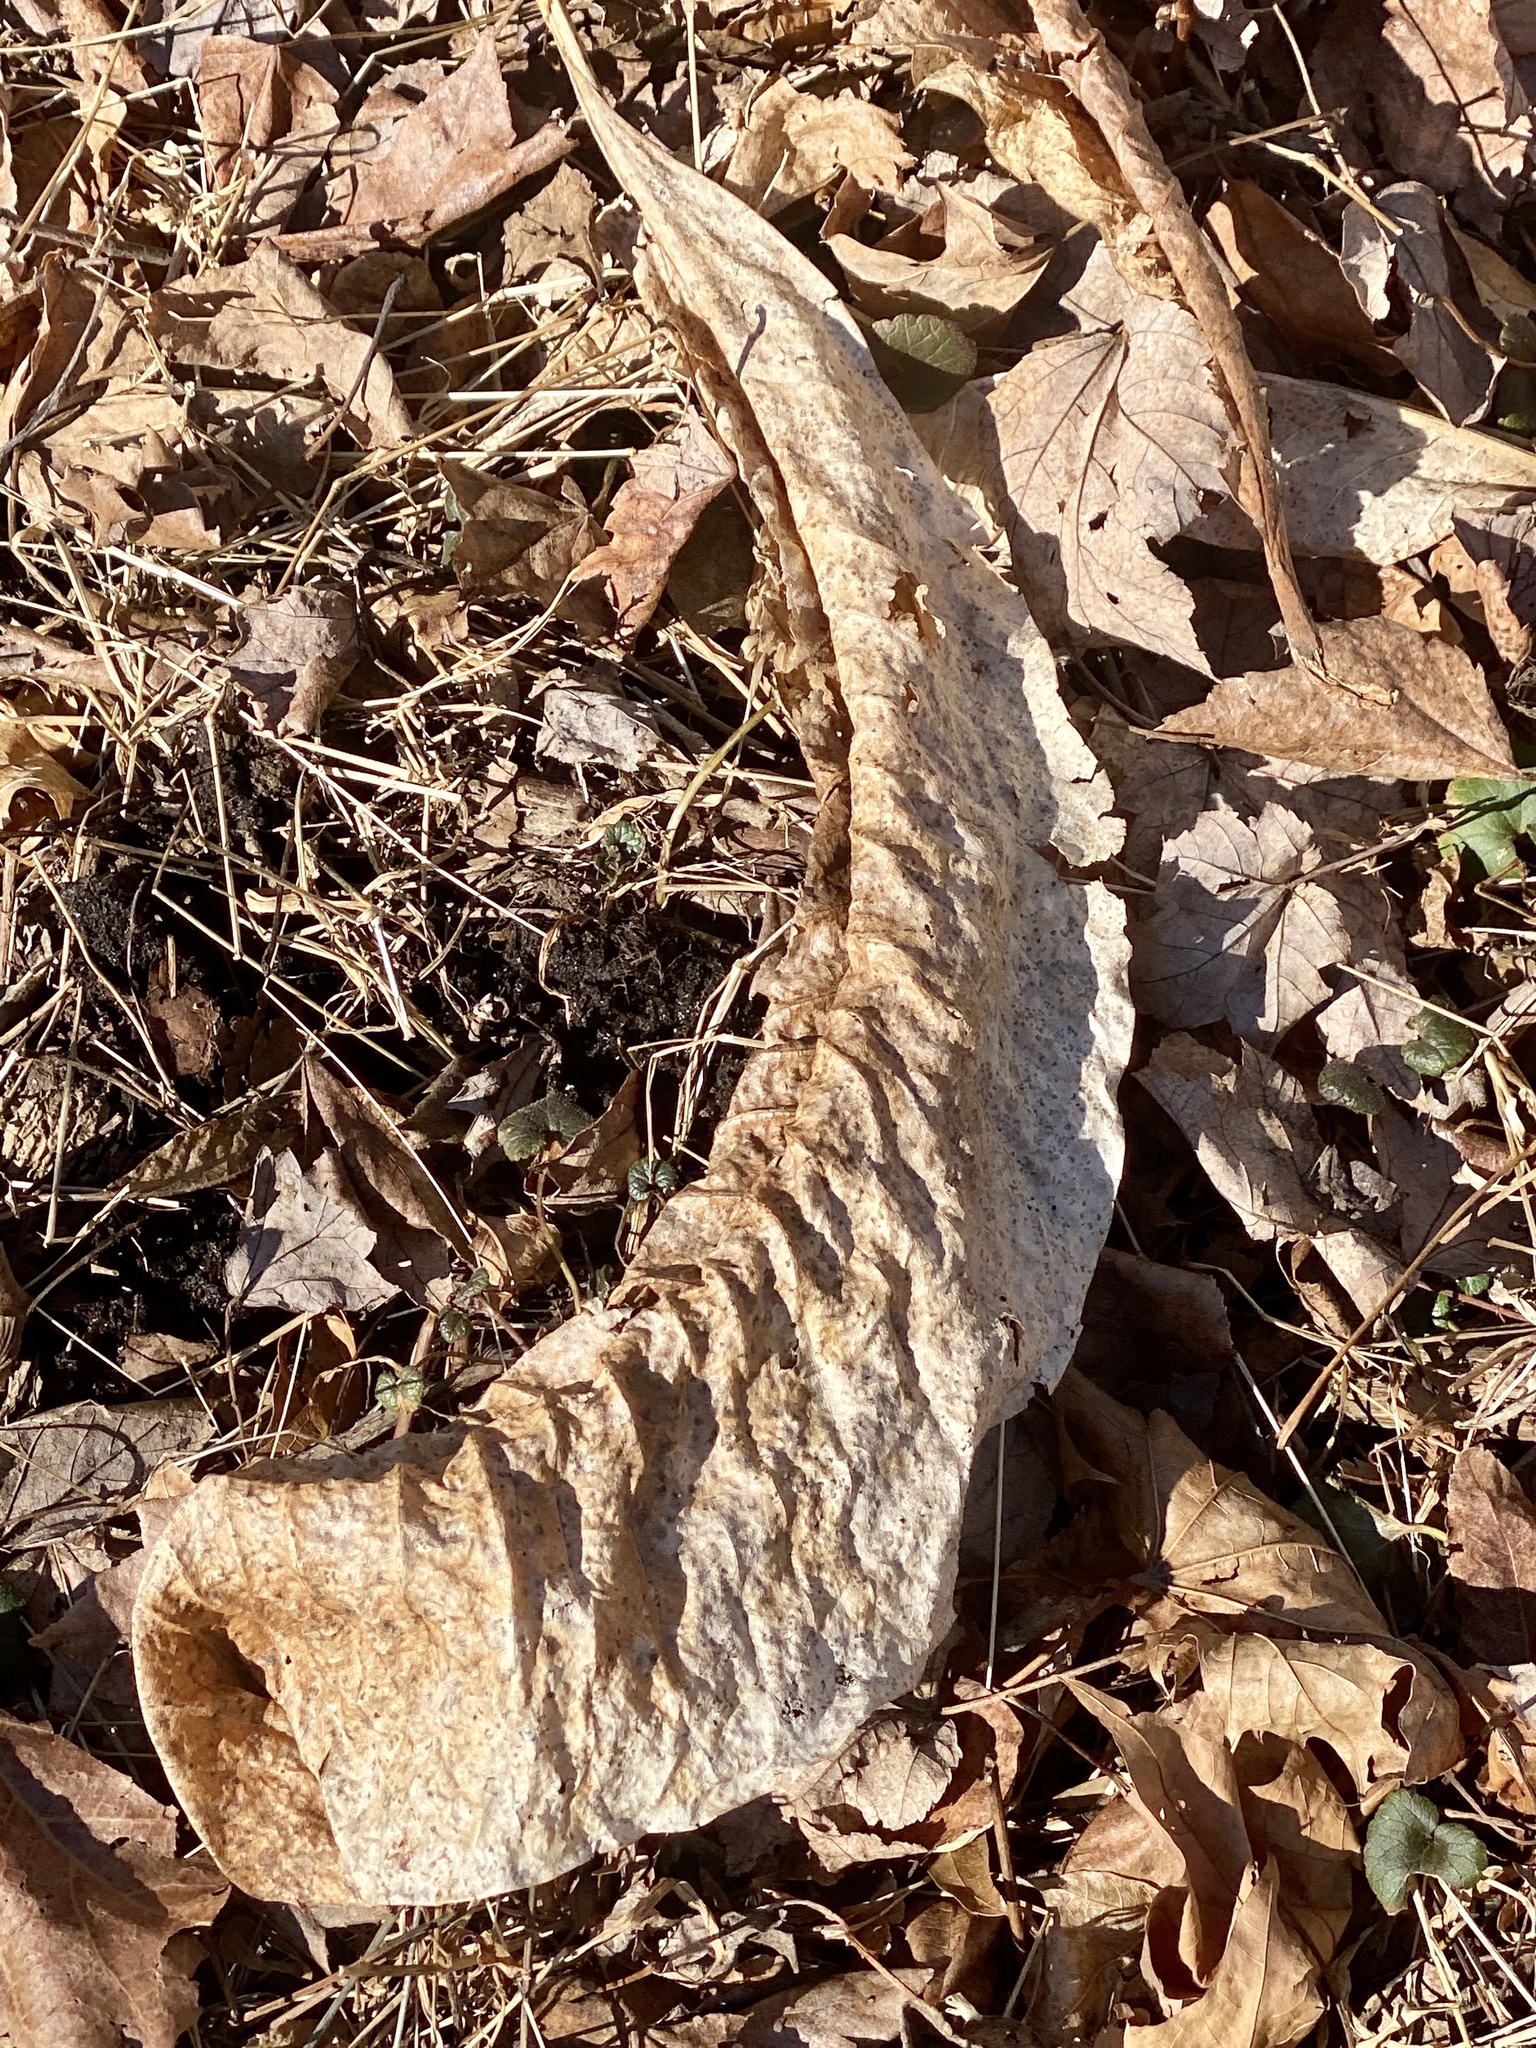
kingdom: Plantae
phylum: Tracheophyta
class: Magnoliopsida
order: Magnoliales
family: Magnoliaceae
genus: Magnolia
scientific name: Magnolia tripetala
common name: Umbrella magnolia
